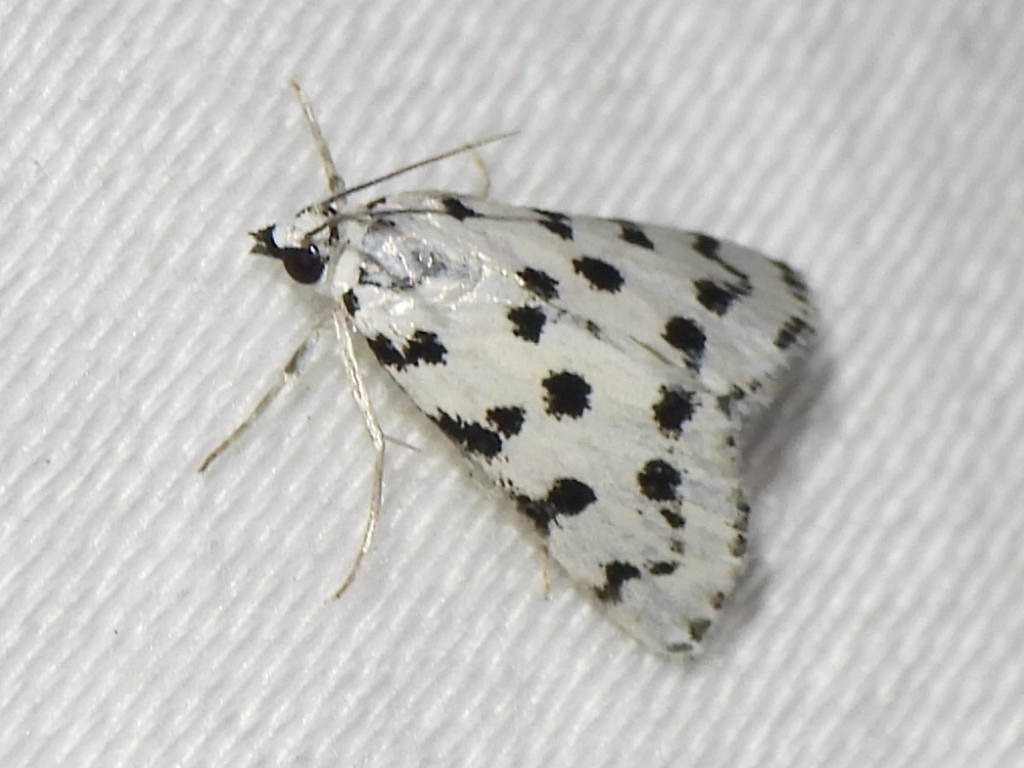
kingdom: Animalia
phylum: Arthropoda
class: Insecta
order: Lepidoptera
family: Crambidae
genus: Eustixia
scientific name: Eustixia pupula
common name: American cabbage pearl
